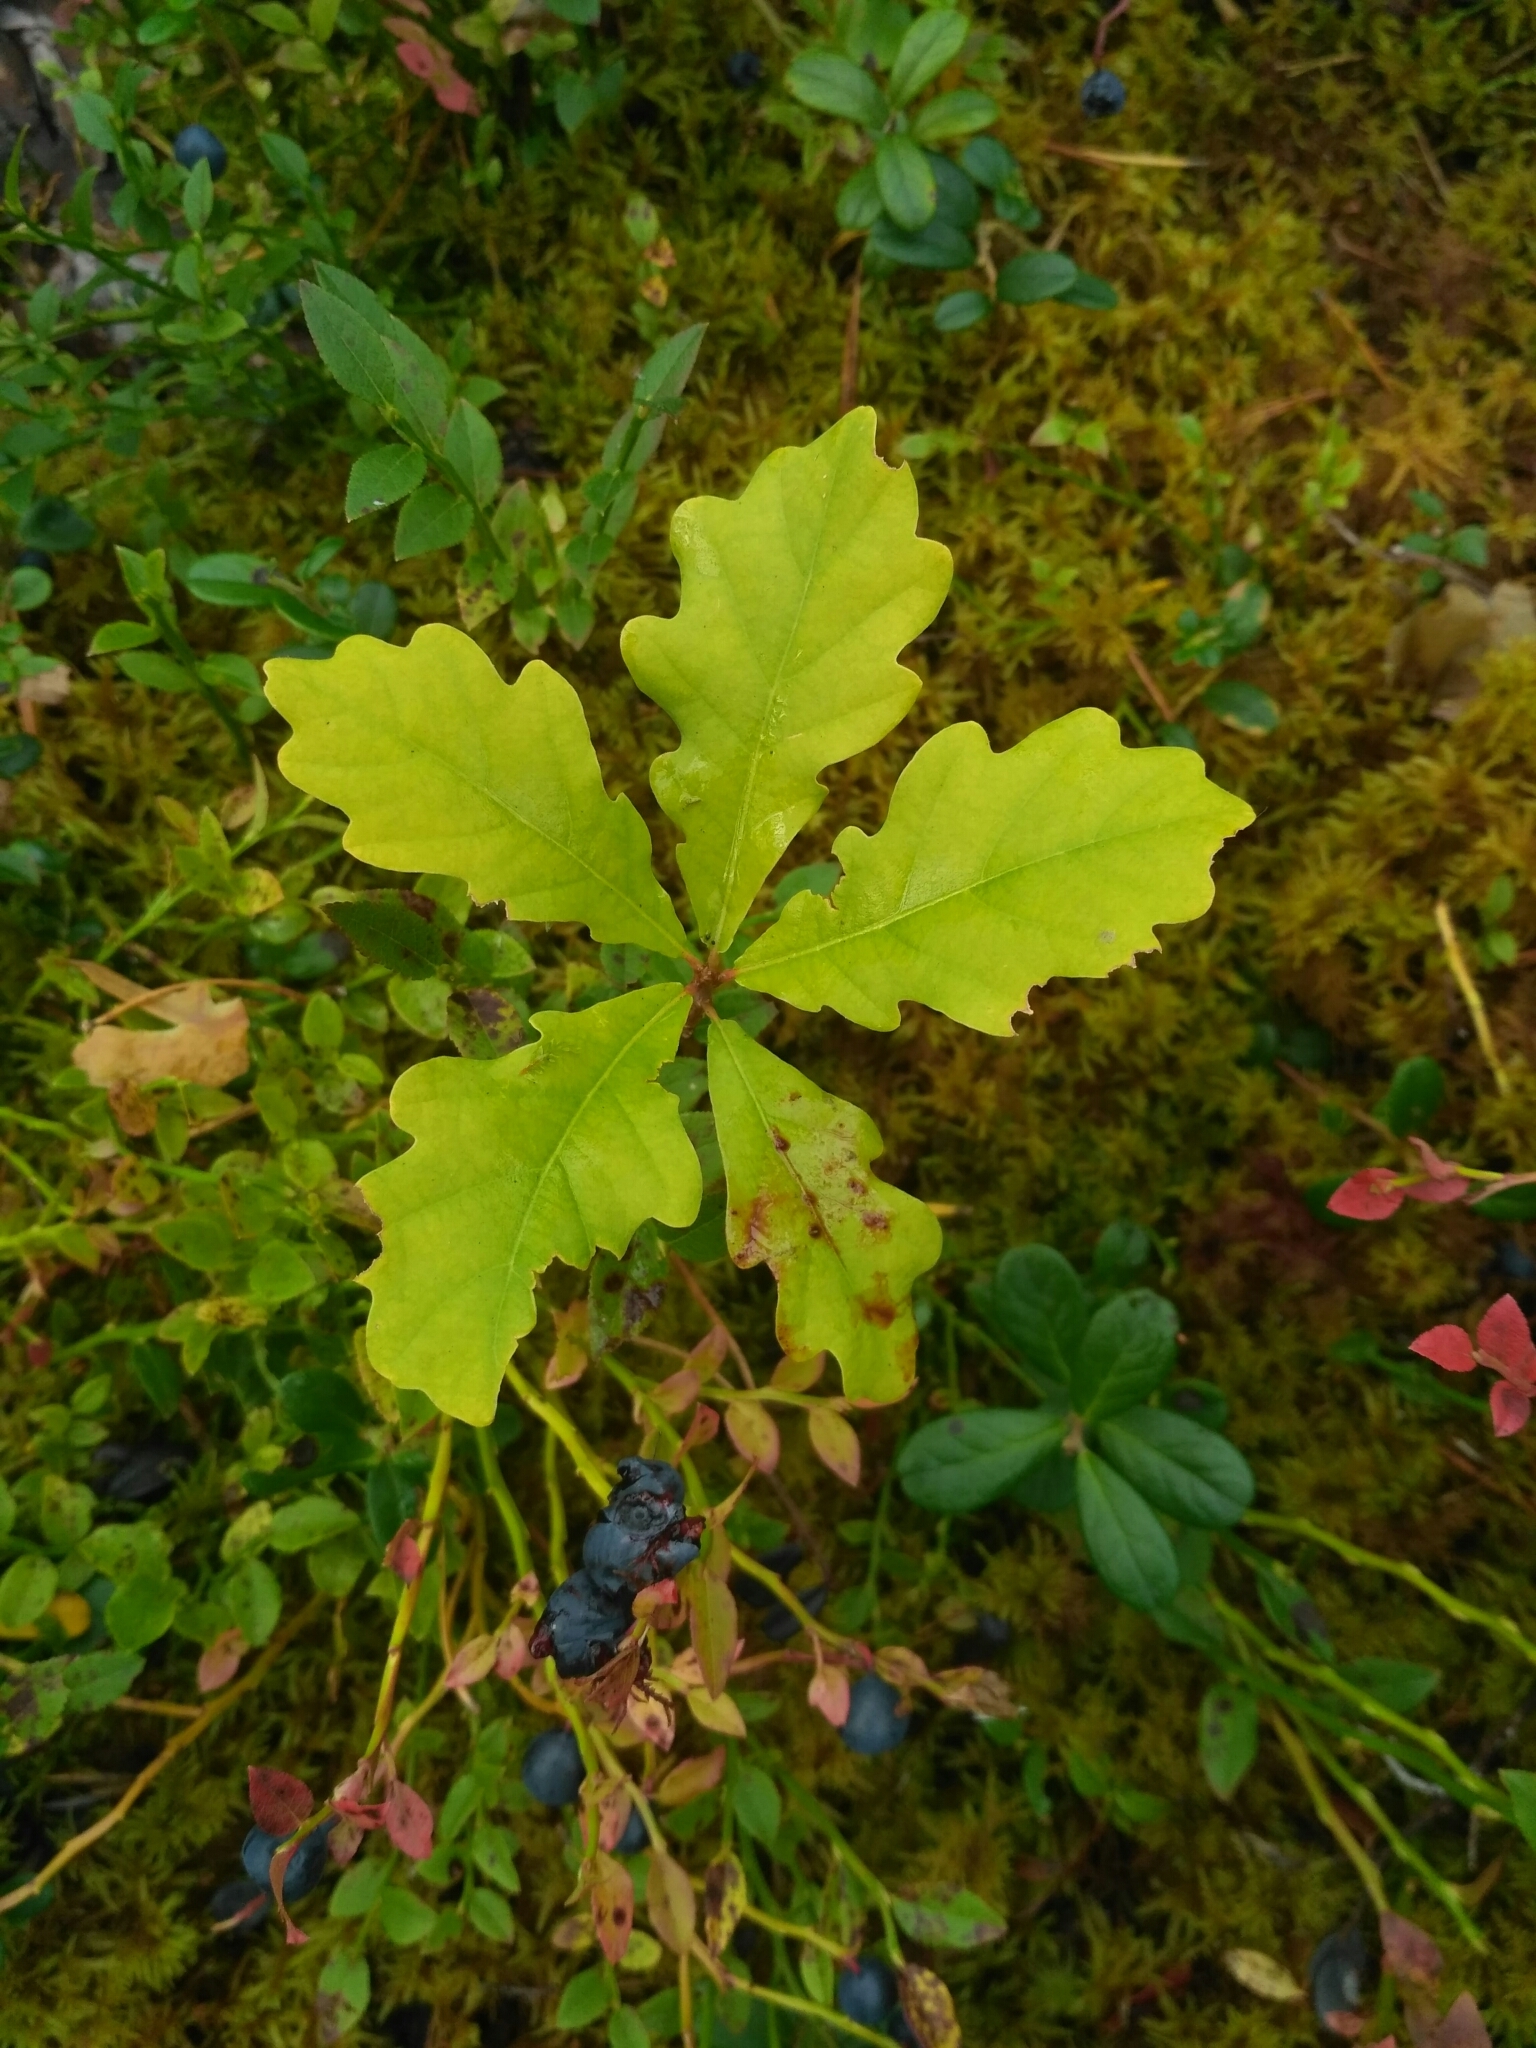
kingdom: Plantae
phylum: Tracheophyta
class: Magnoliopsida
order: Fagales
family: Fagaceae
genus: Quercus
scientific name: Quercus robur
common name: Pedunculate oak
